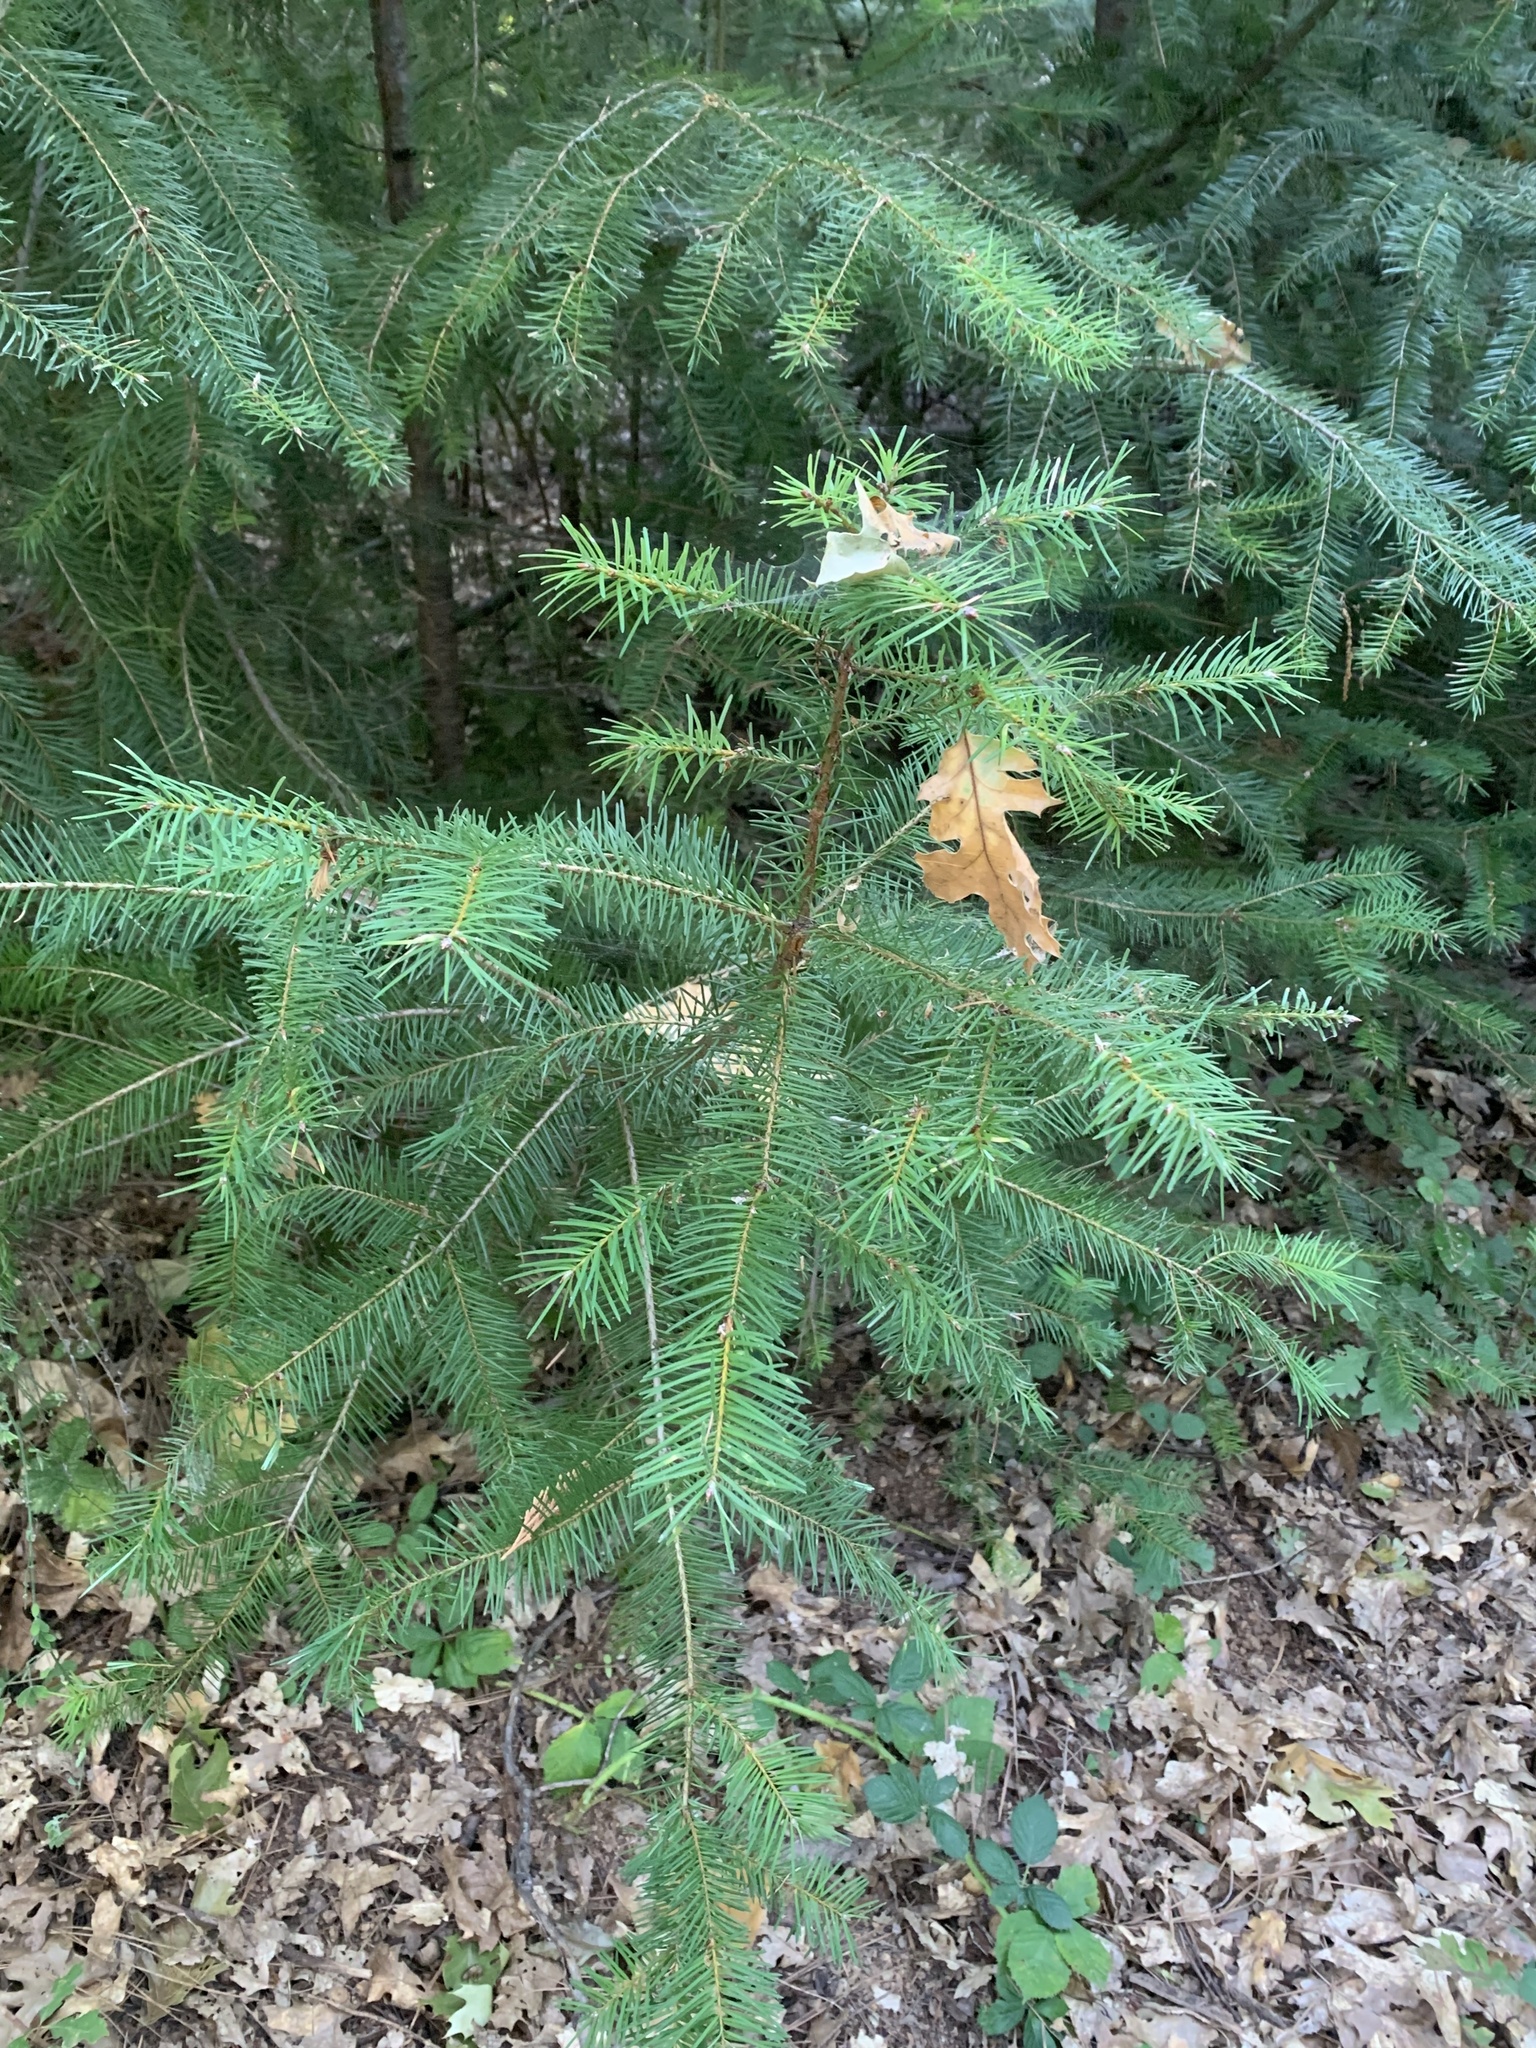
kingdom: Plantae
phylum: Tracheophyta
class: Pinopsida
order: Pinales
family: Pinaceae
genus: Pseudotsuga
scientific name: Pseudotsuga menziesii
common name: Douglas fir
